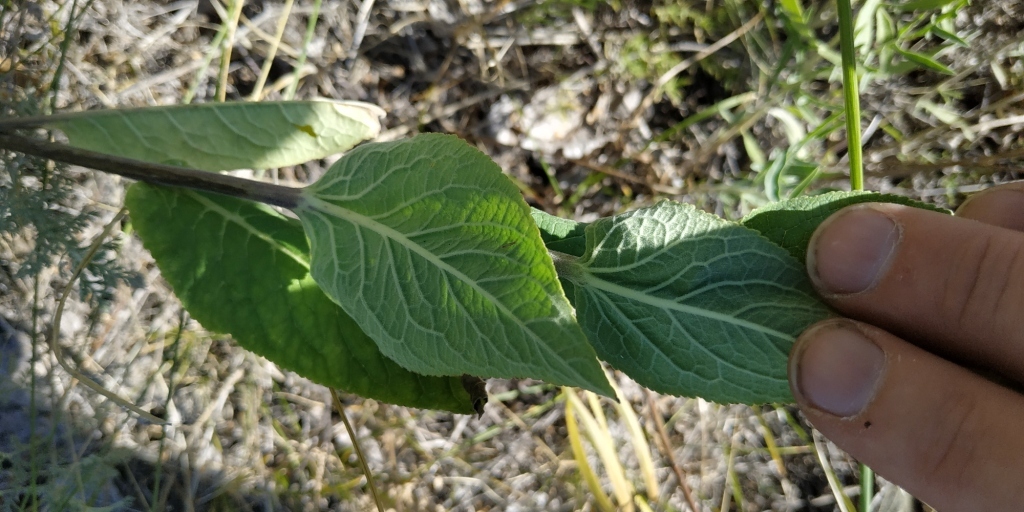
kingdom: Plantae
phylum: Tracheophyta
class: Magnoliopsida
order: Asterales
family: Campanulaceae
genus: Campanula
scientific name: Campanula bononiensis
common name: Pale bellflower
